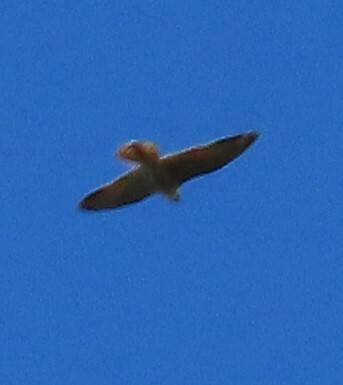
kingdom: Animalia
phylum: Chordata
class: Aves
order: Accipitriformes
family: Accipitridae
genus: Buteo
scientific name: Buteo jamaicensis
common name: Red-tailed hawk
